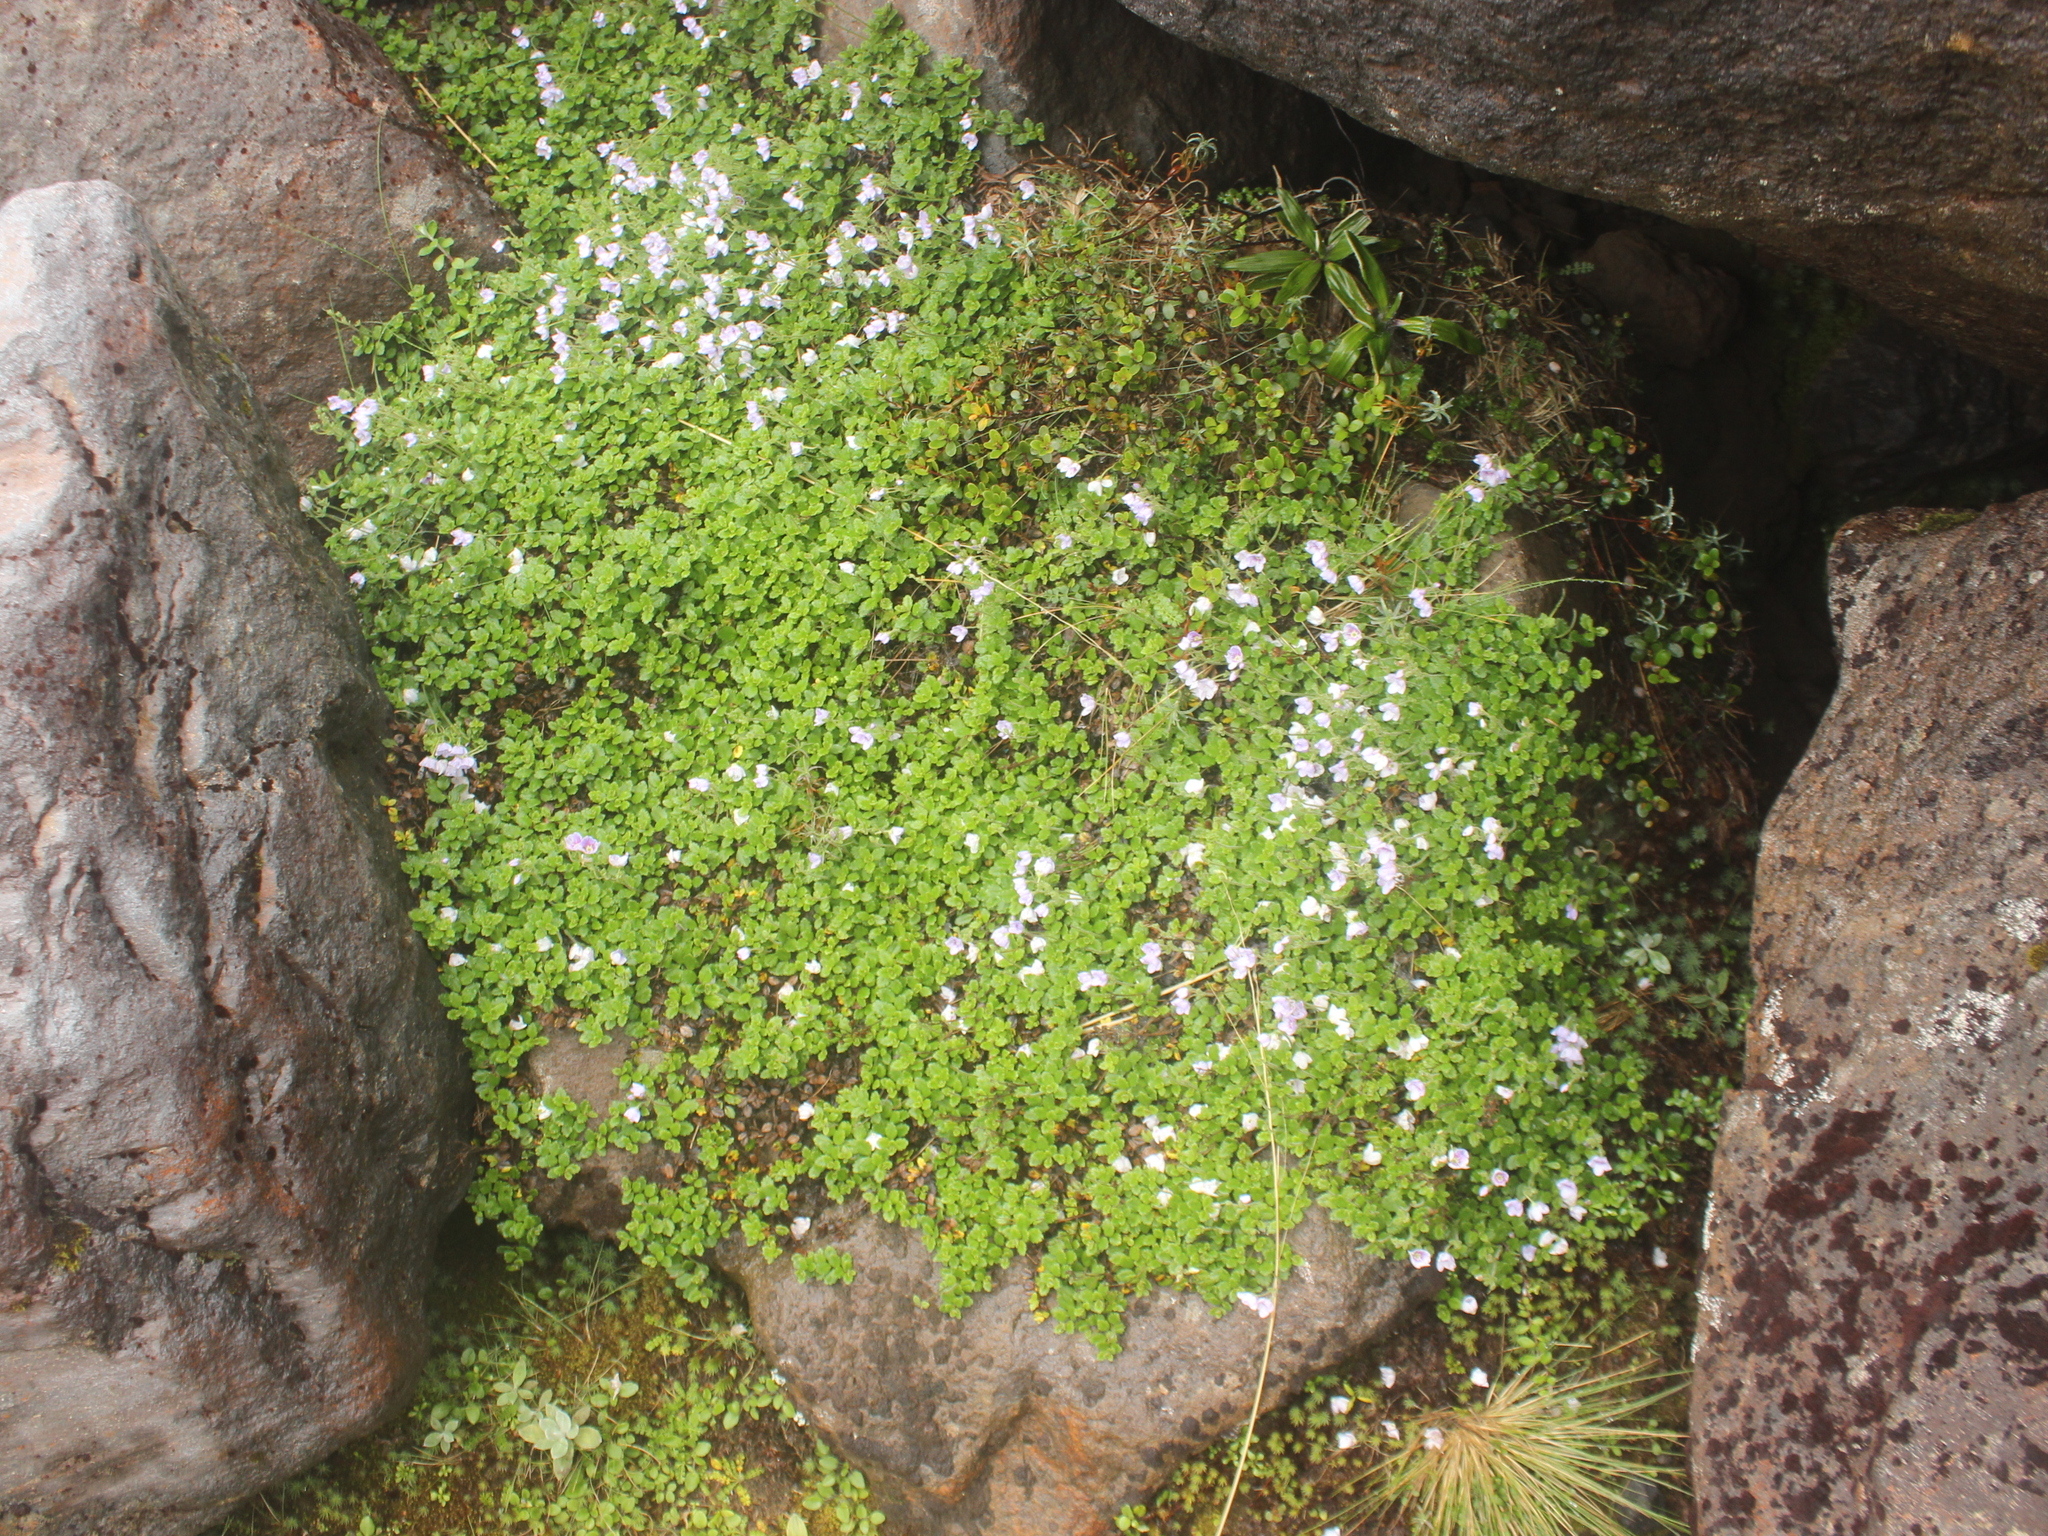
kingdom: Plantae
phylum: Tracheophyta
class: Magnoliopsida
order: Lamiales
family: Plantaginaceae
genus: Veronica
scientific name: Veronica hookeriana
